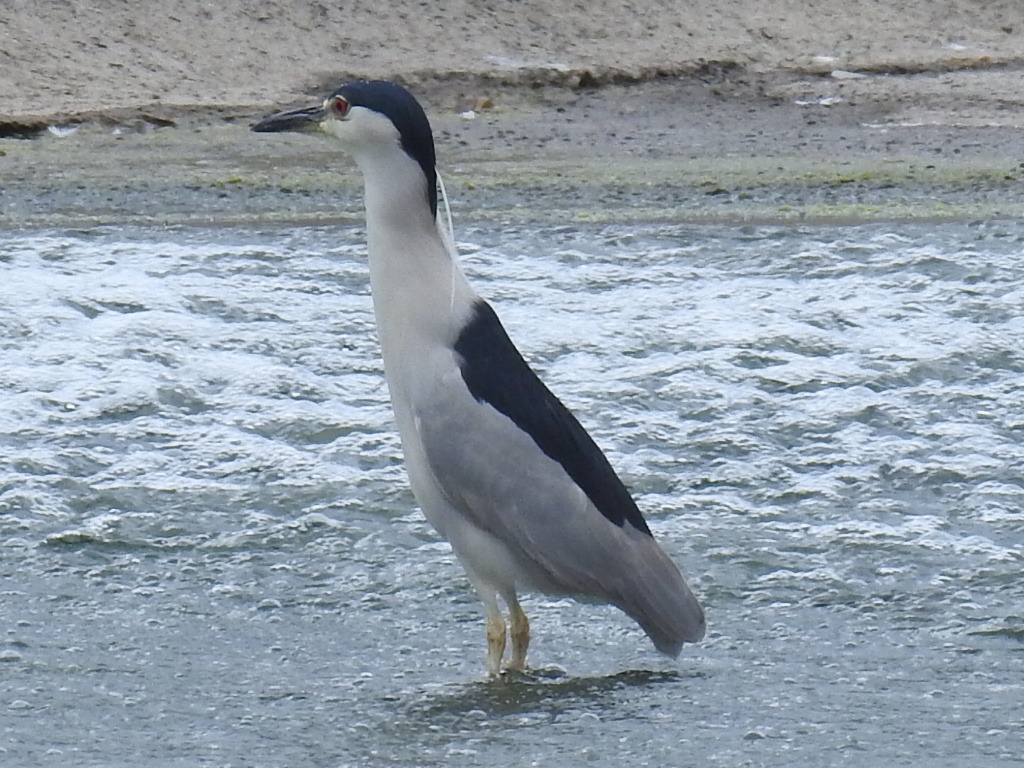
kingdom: Animalia
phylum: Chordata
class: Aves
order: Pelecaniformes
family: Ardeidae
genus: Nycticorax
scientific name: Nycticorax nycticorax
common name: Black-crowned night heron
